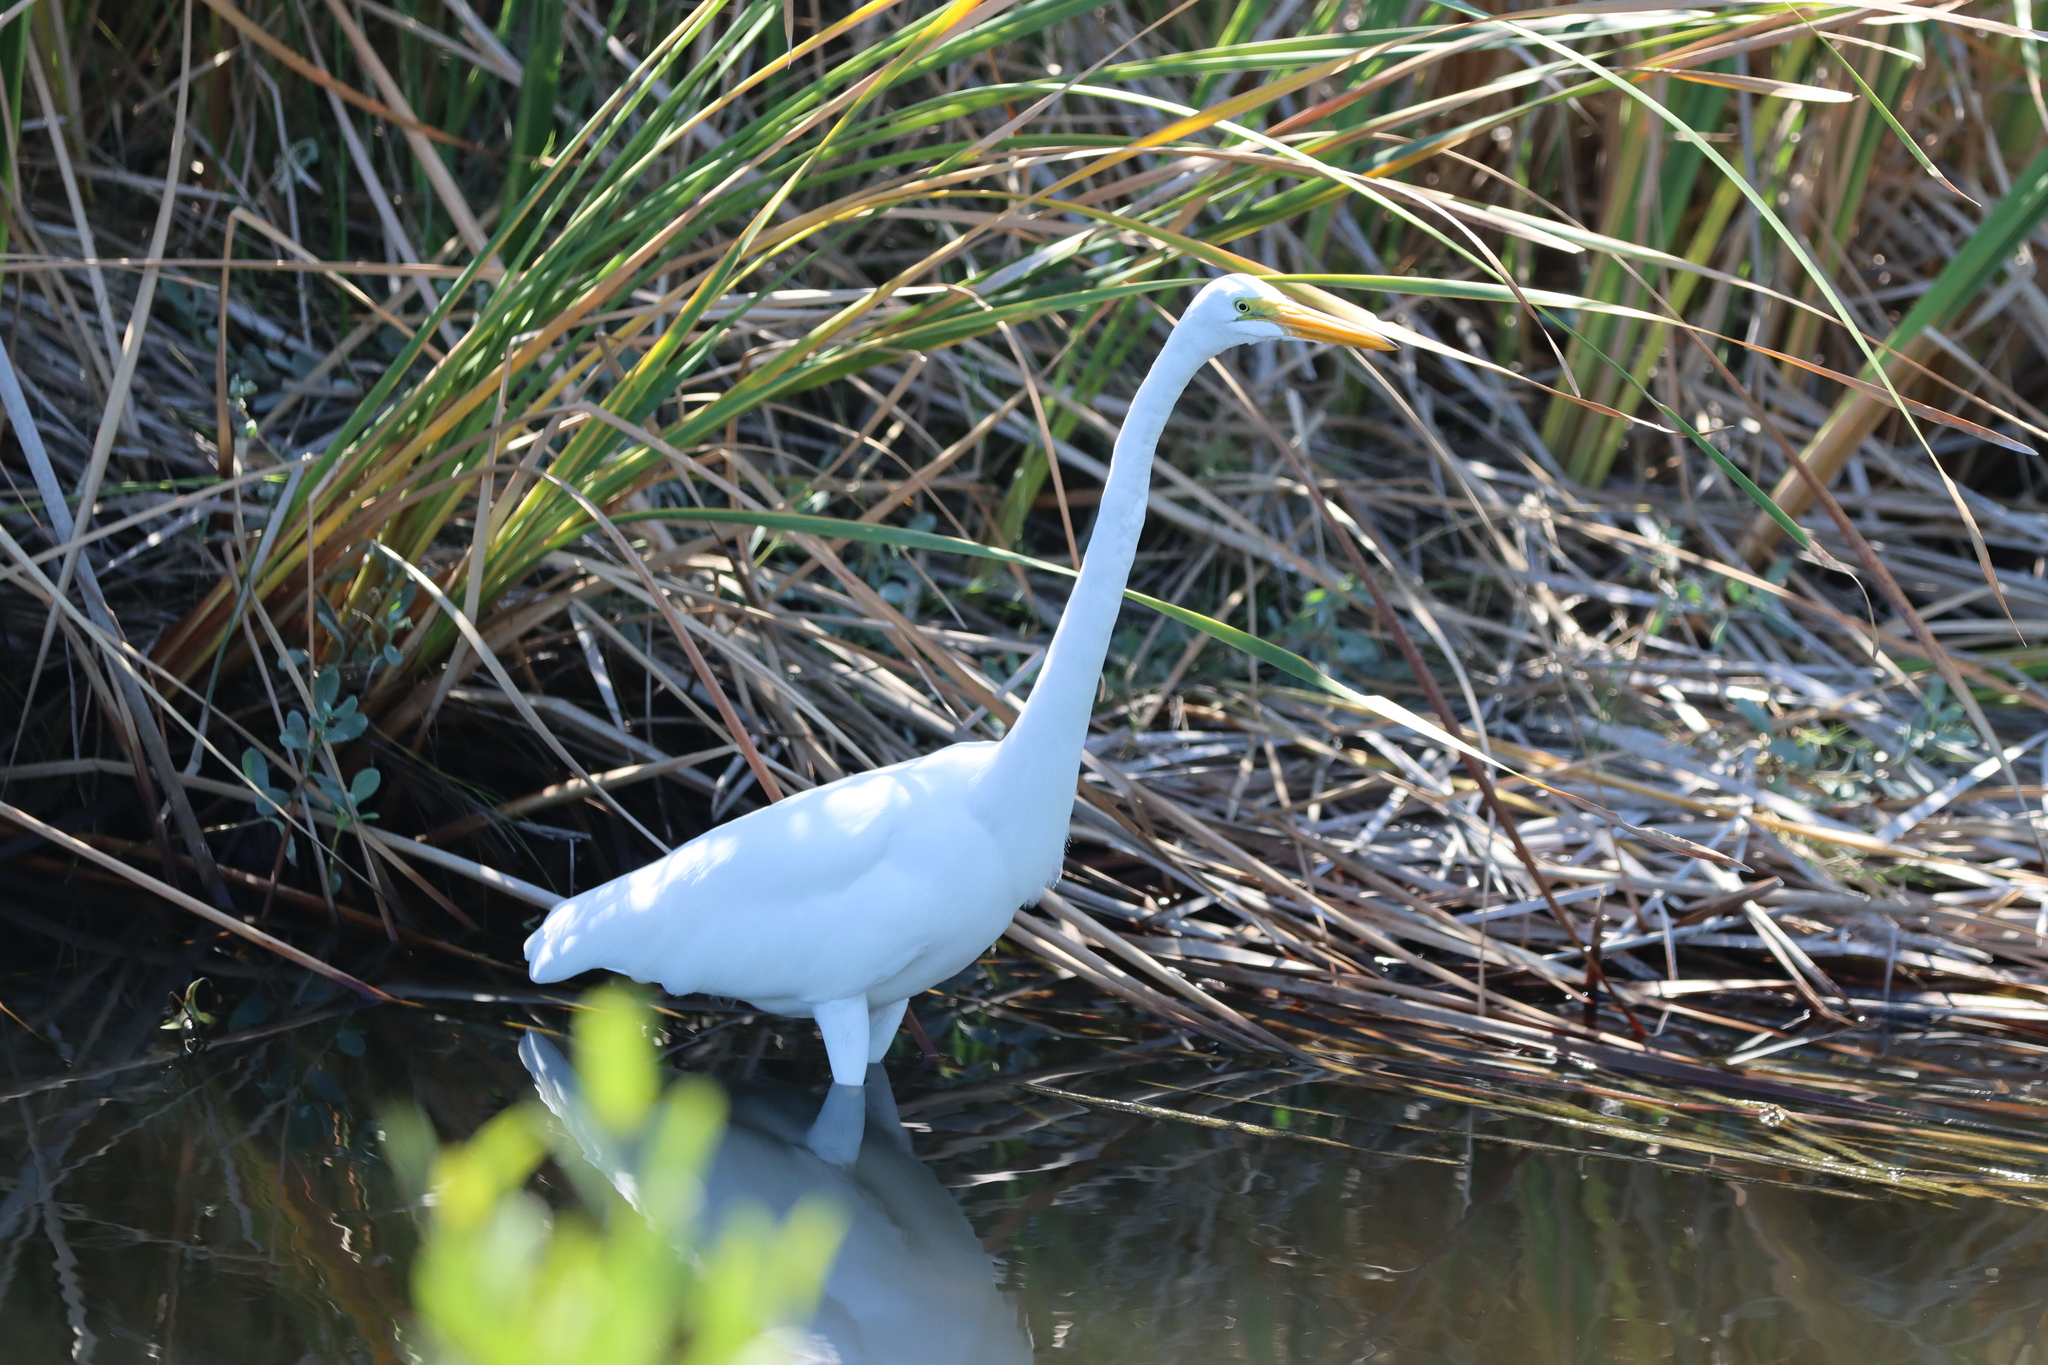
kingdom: Animalia
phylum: Chordata
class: Aves
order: Pelecaniformes
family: Ardeidae
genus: Ardea
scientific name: Ardea alba
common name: Great egret
